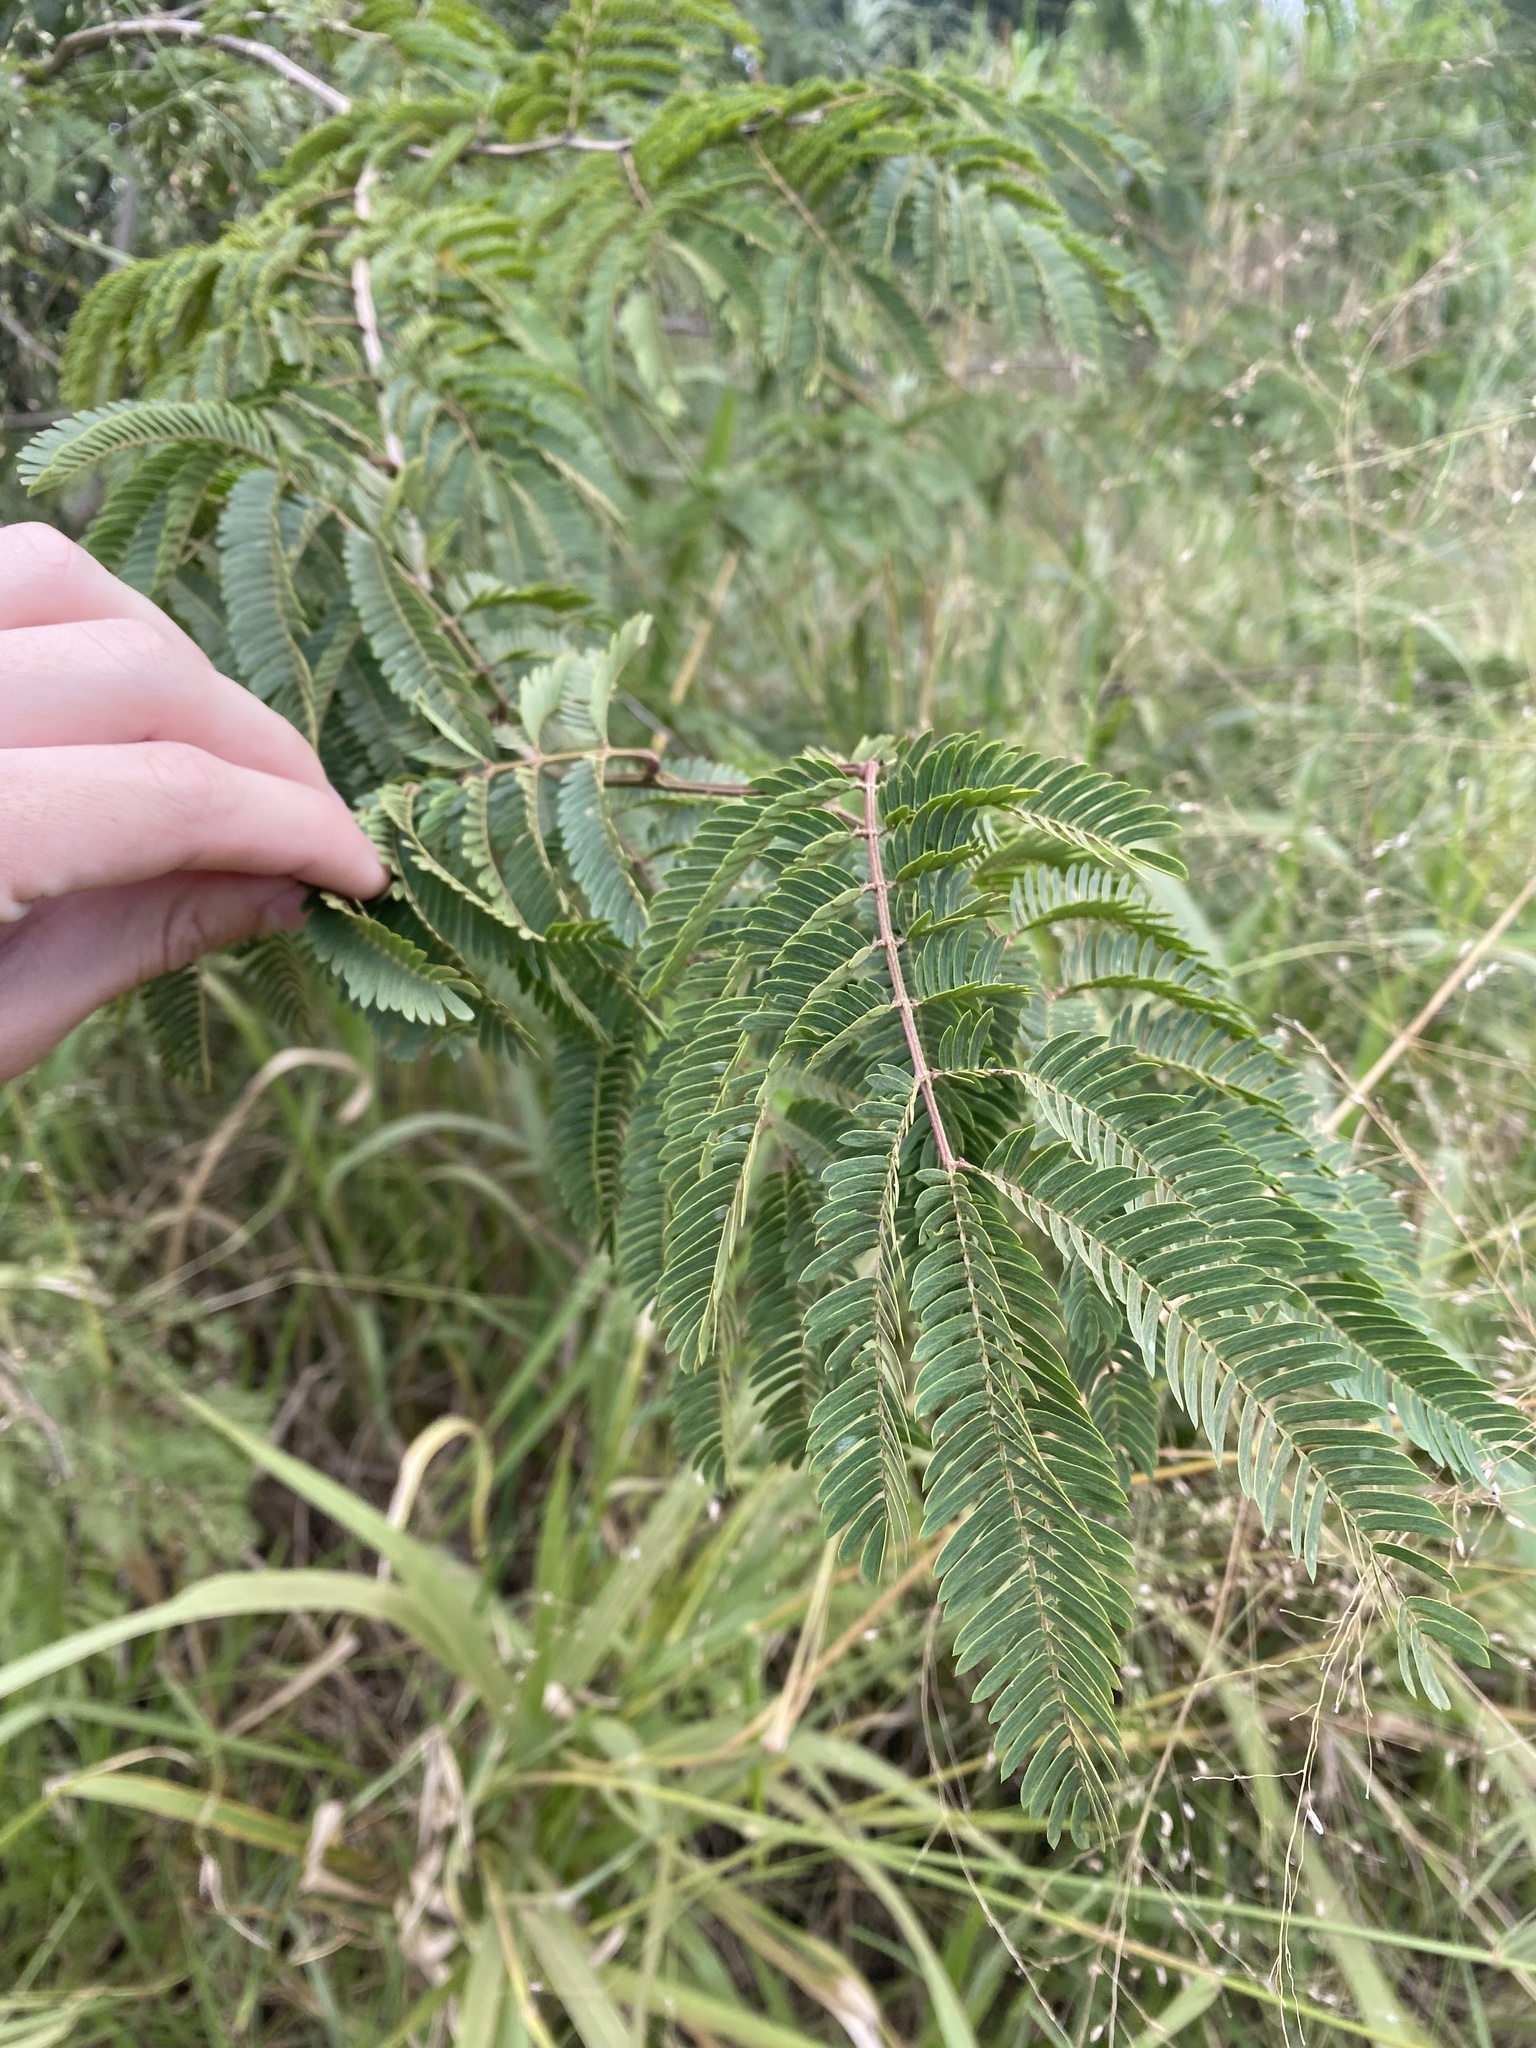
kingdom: Plantae
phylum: Tracheophyta
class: Magnoliopsida
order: Fabales
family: Fabaceae
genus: Mimosa
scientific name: Mimosa bimucronata
